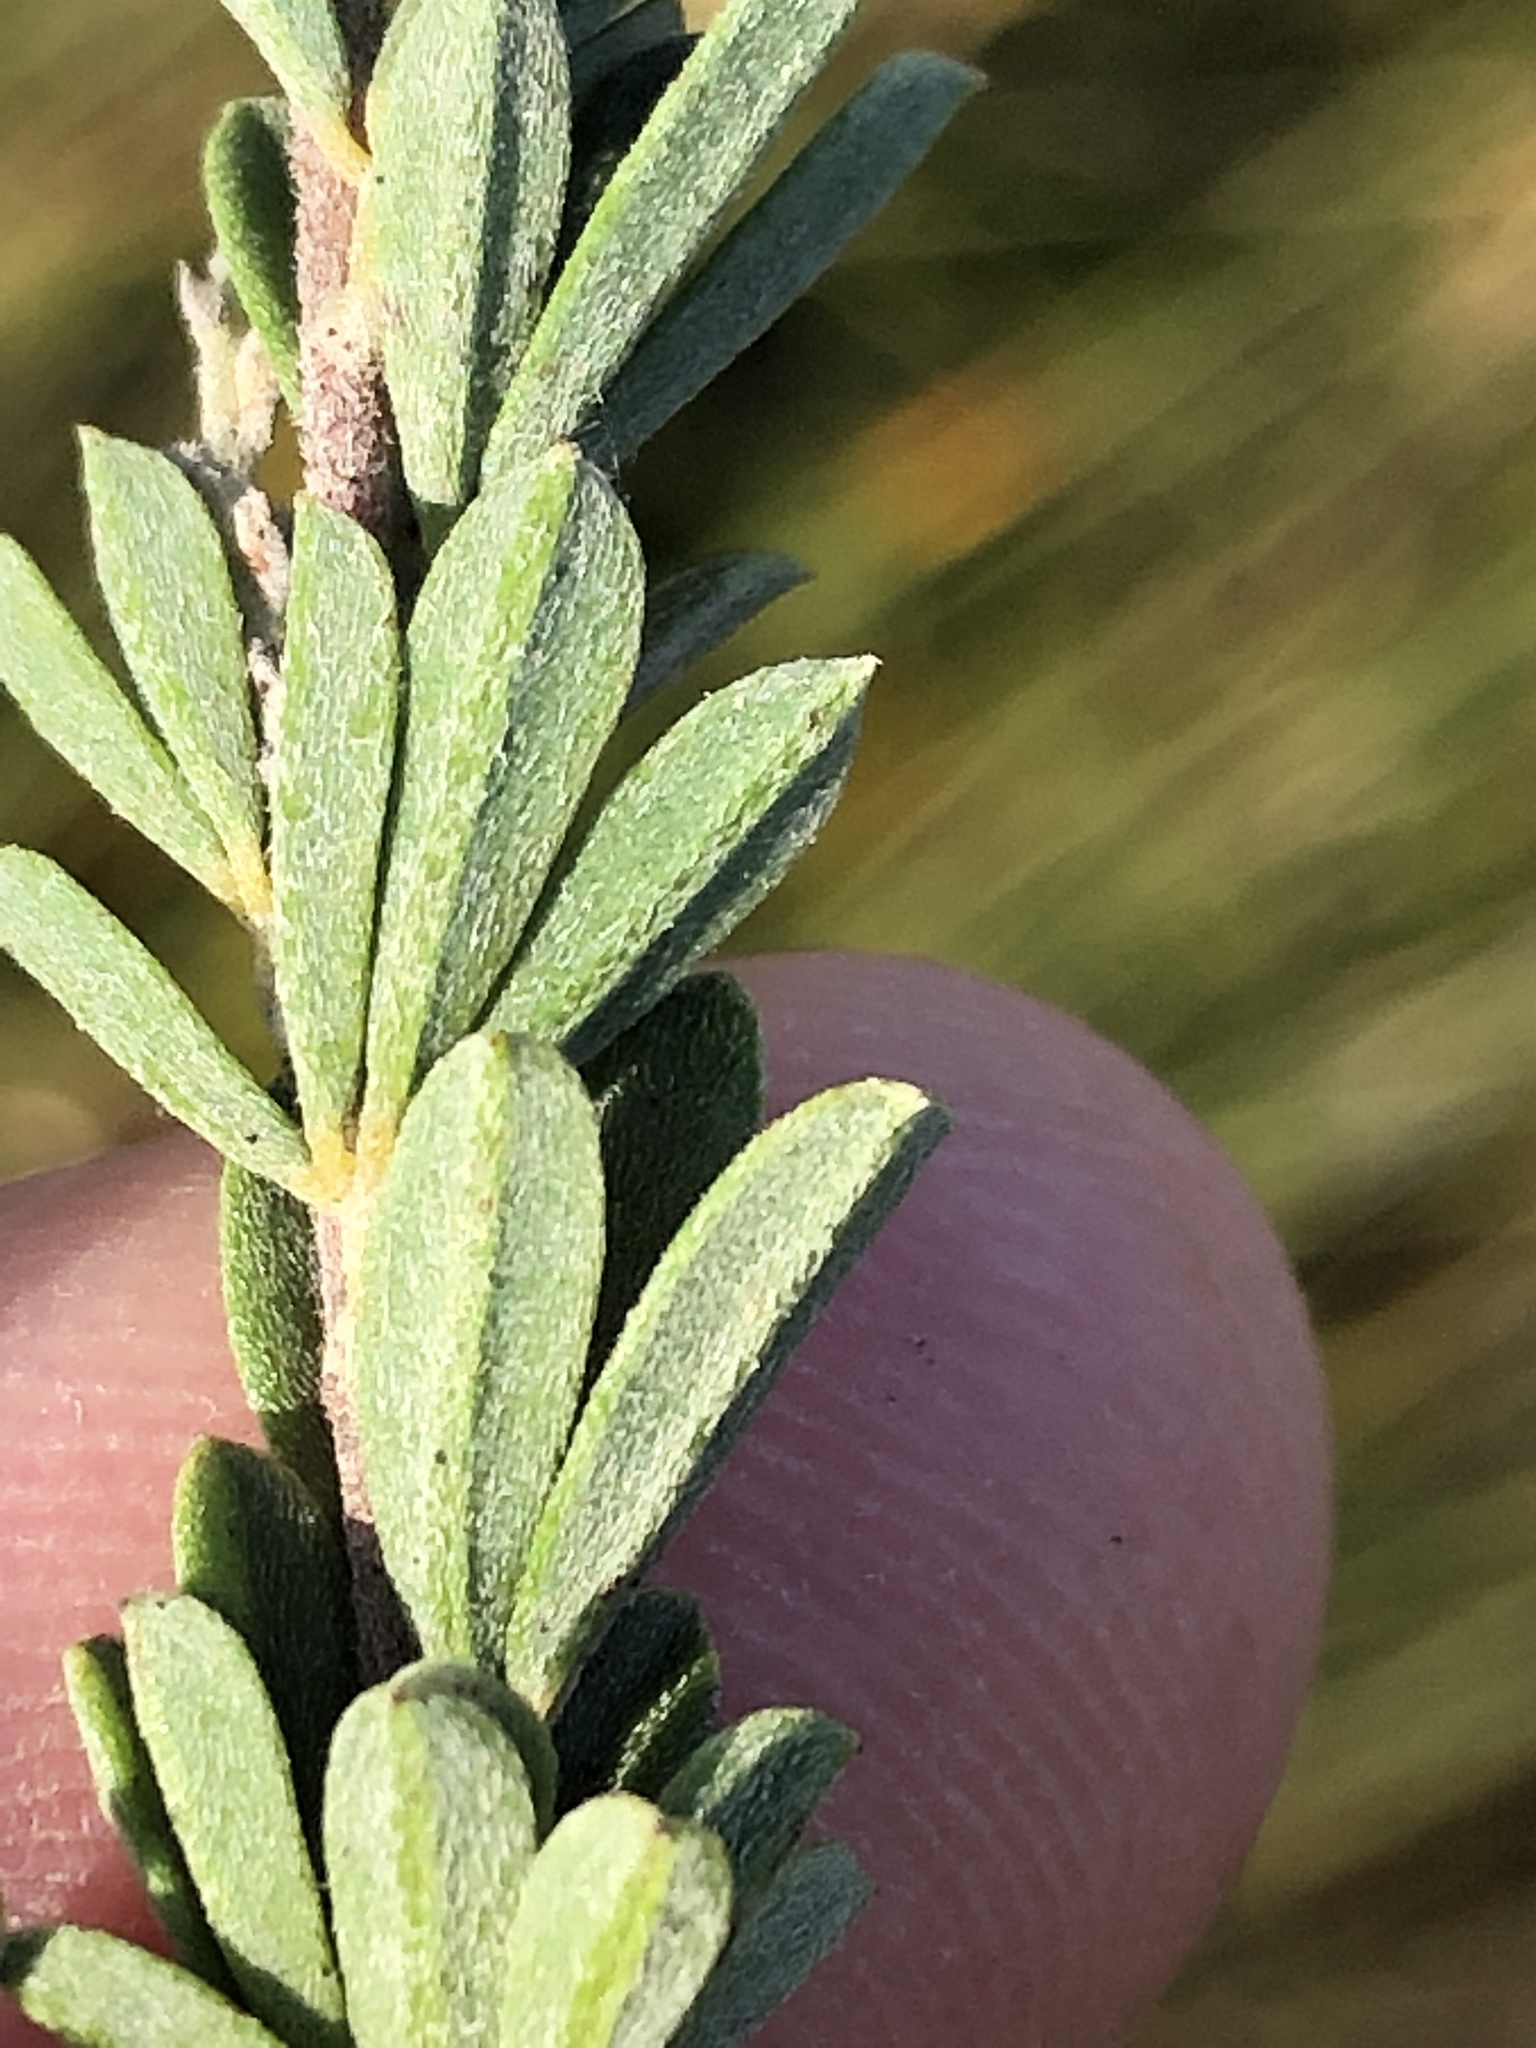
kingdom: Plantae
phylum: Tracheophyta
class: Magnoliopsida
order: Fabales
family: Fabaceae
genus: Indigofera
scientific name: Indigofera flabellata
